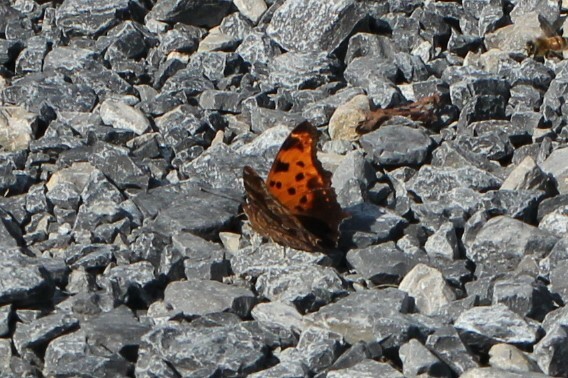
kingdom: Animalia
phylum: Arthropoda
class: Insecta
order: Lepidoptera
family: Nymphalidae
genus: Polygonia
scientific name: Polygonia comma
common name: Eastern comma
